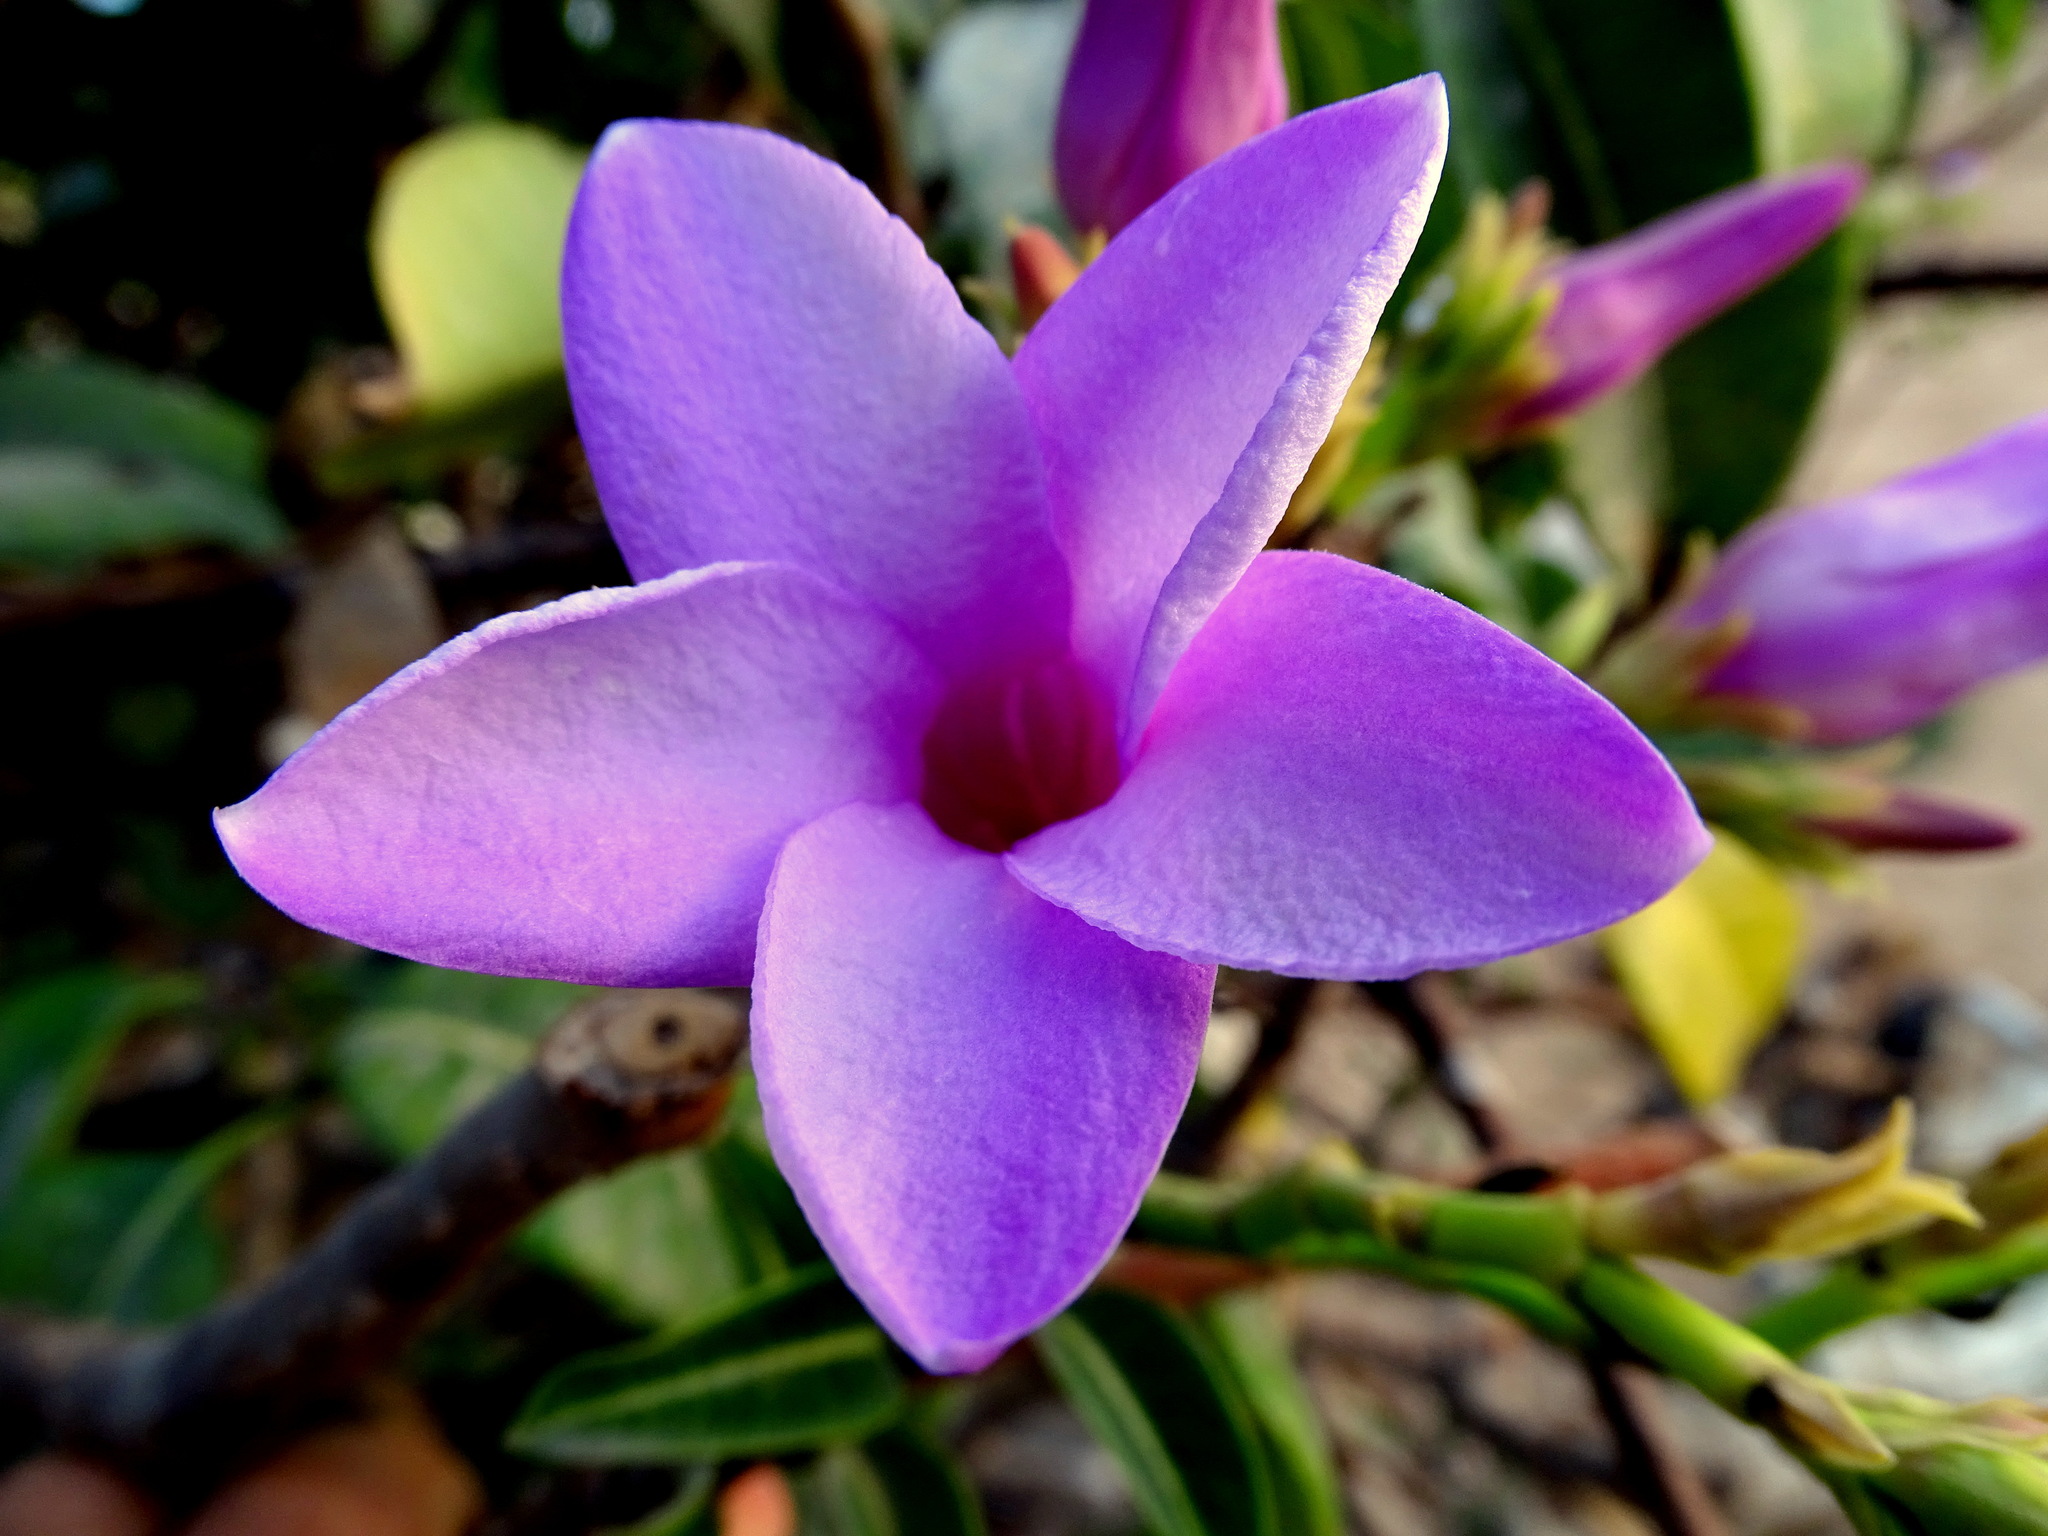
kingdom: Plantae
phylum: Tracheophyta
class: Magnoliopsida
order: Gentianales
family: Apocynaceae
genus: Cryptostegia
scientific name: Cryptostegia grandiflora
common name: Palay rubbervine
